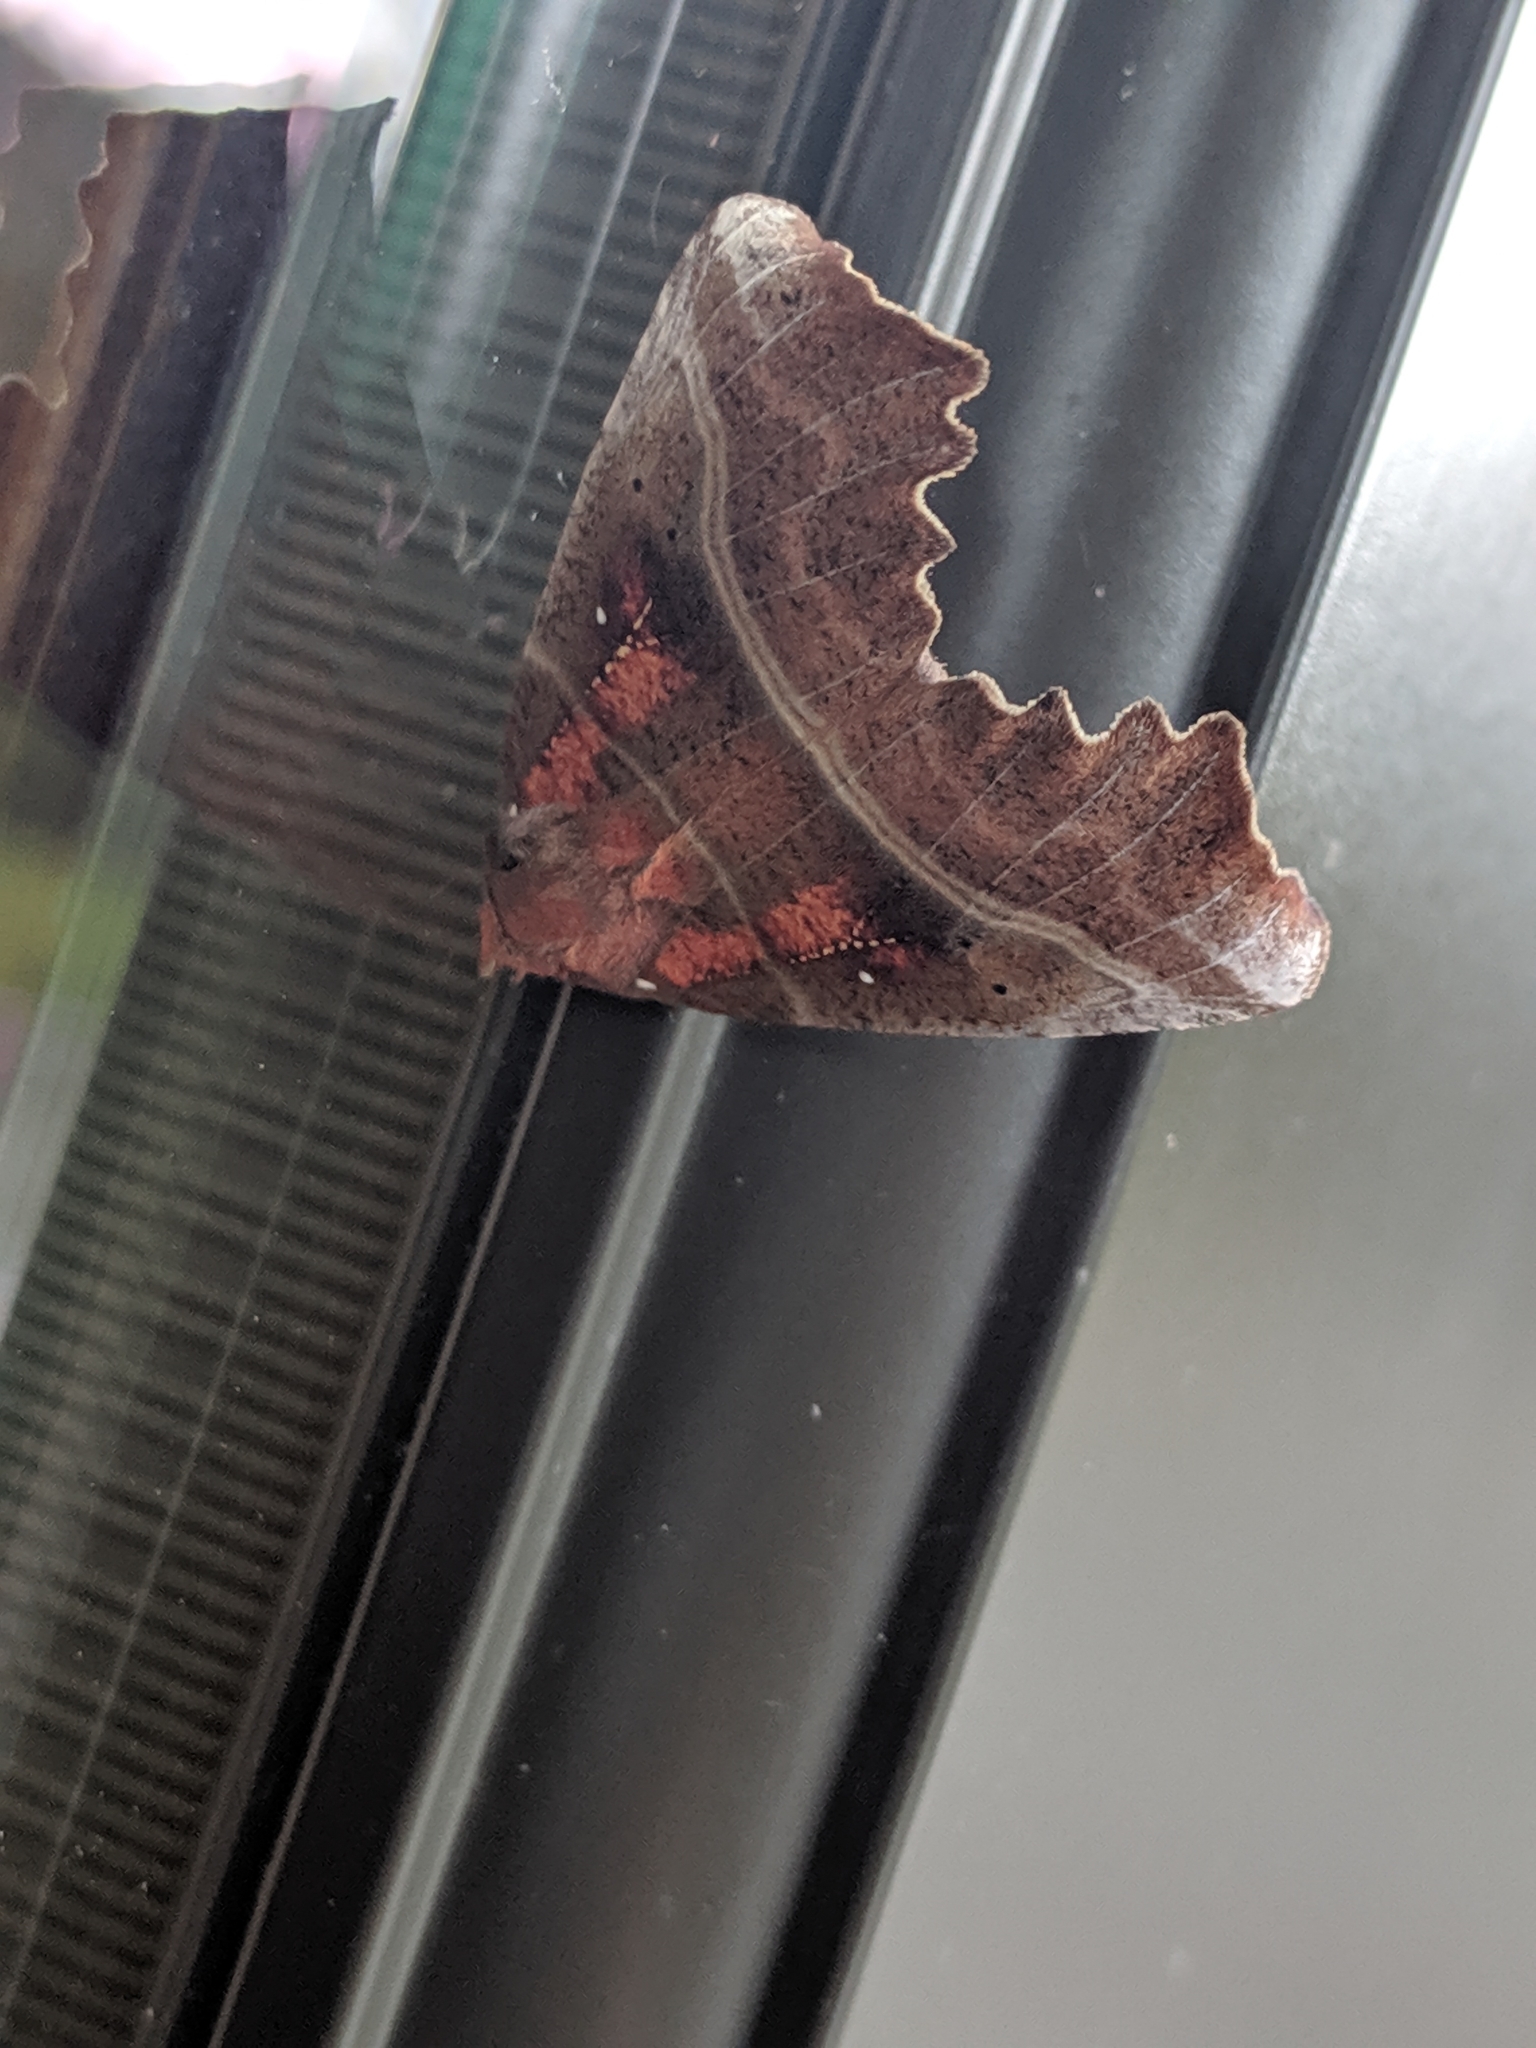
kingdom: Animalia
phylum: Arthropoda
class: Insecta
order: Lepidoptera
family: Erebidae
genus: Scoliopteryx
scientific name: Scoliopteryx libatrix
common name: Herald
